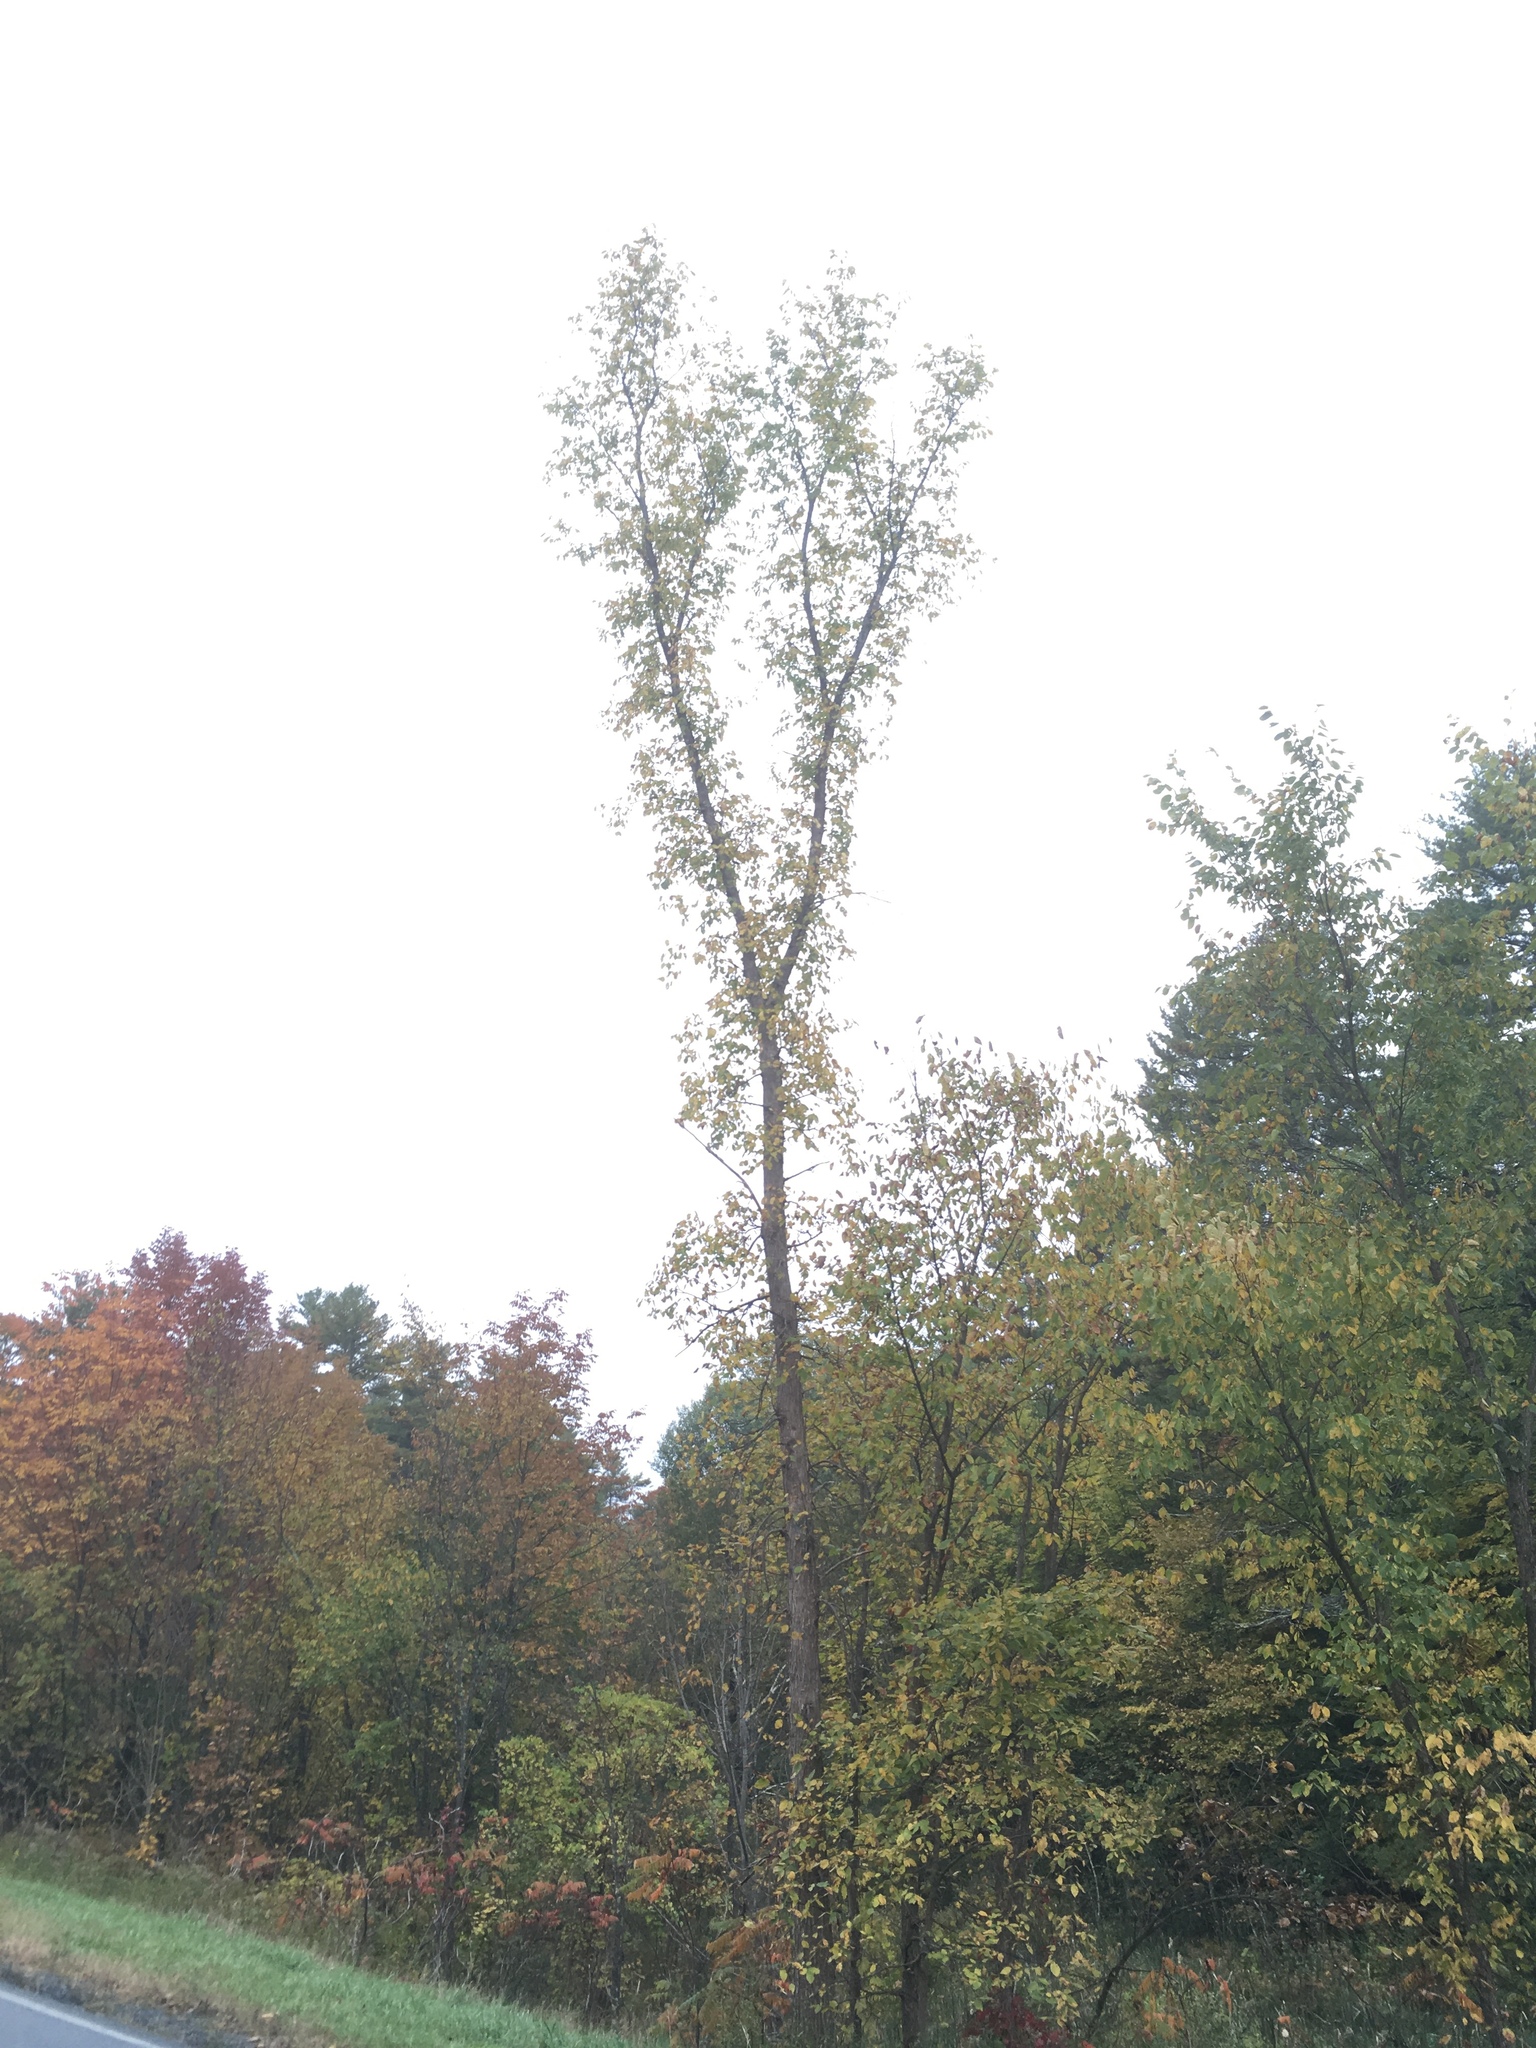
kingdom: Plantae
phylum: Tracheophyta
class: Magnoliopsida
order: Rosales
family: Ulmaceae
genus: Ulmus
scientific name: Ulmus americana
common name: American elm
